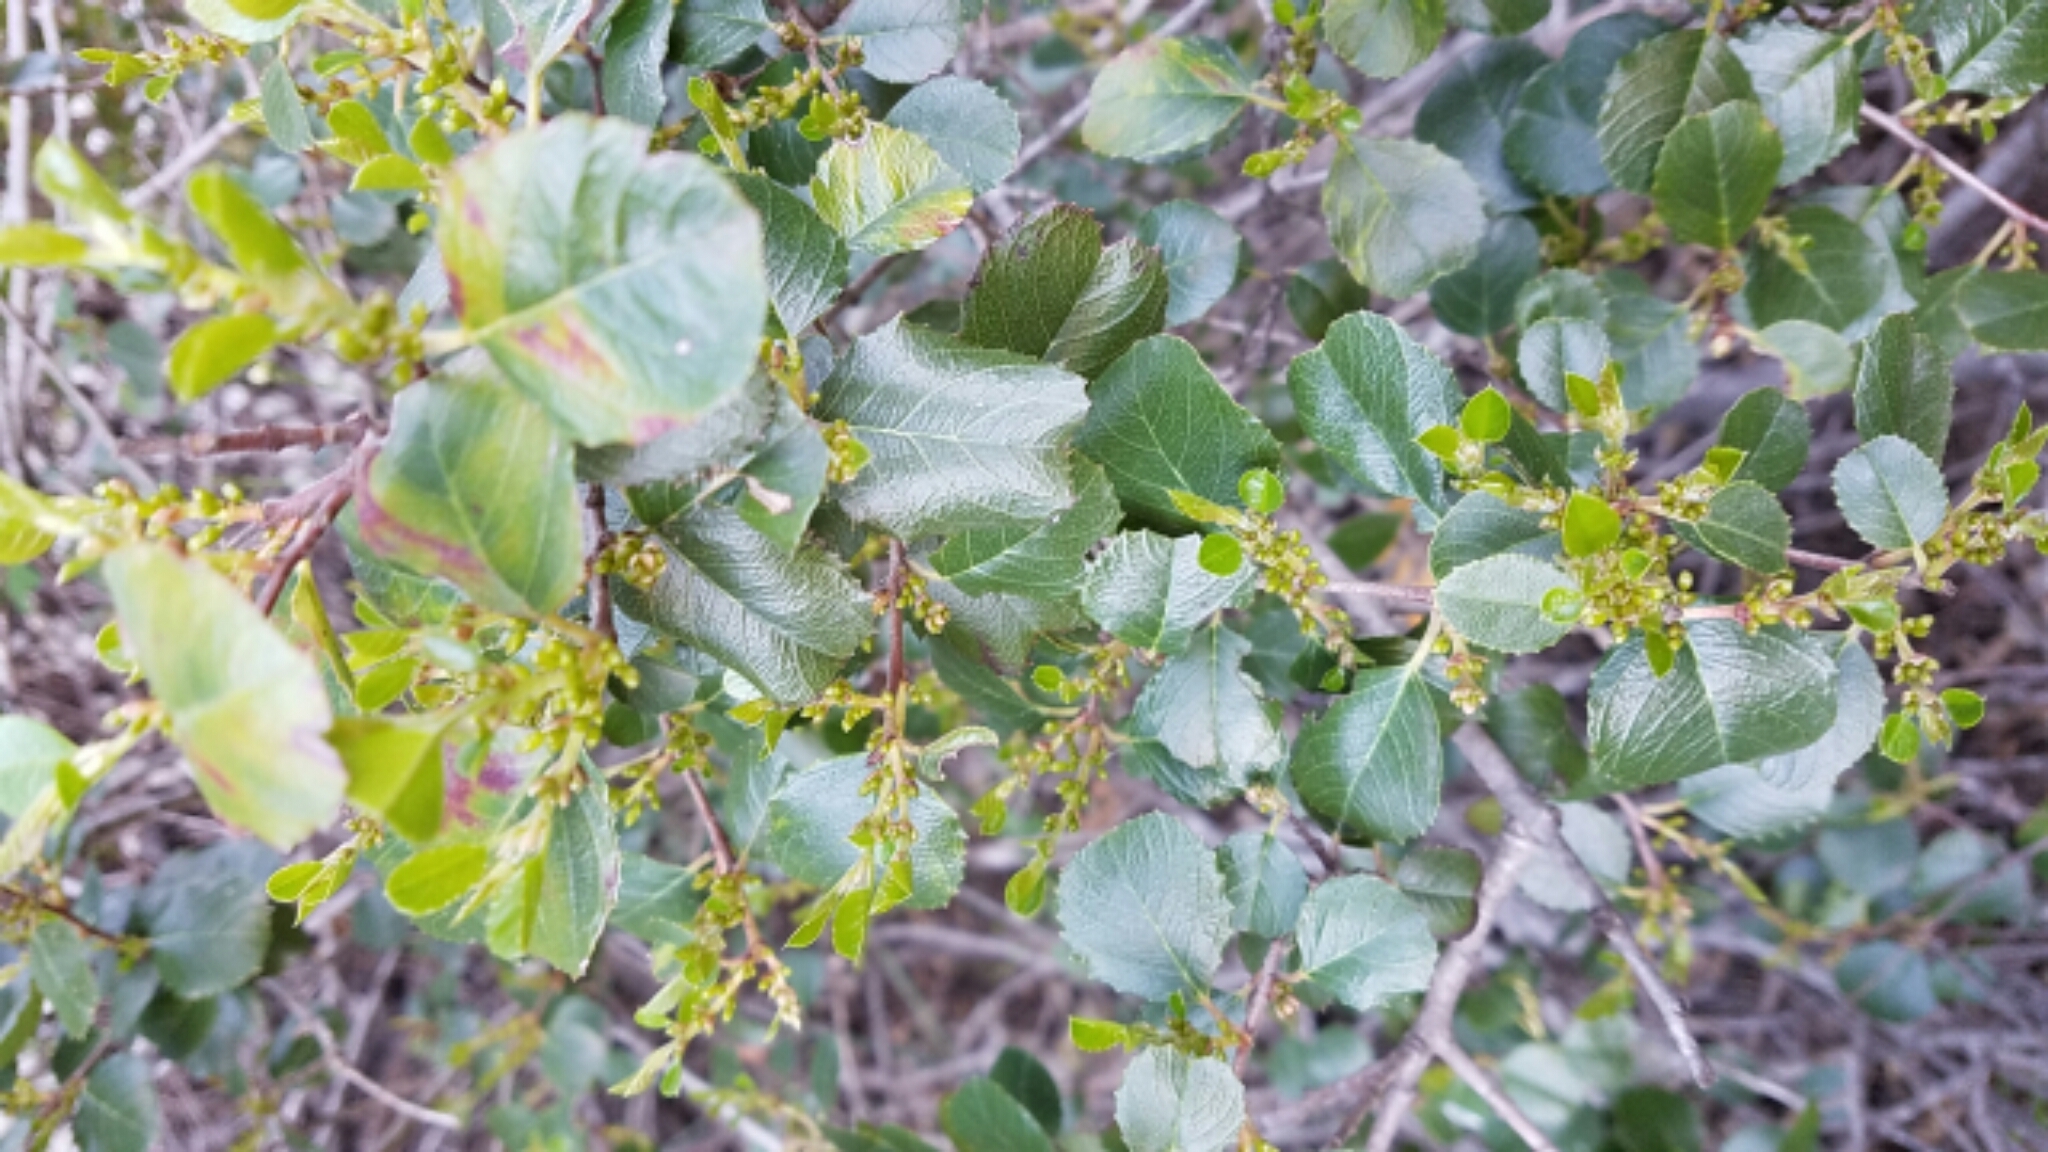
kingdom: Plantae
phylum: Tracheophyta
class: Magnoliopsida
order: Rosales
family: Rhamnaceae
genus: Endotropis
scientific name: Endotropis crocea
